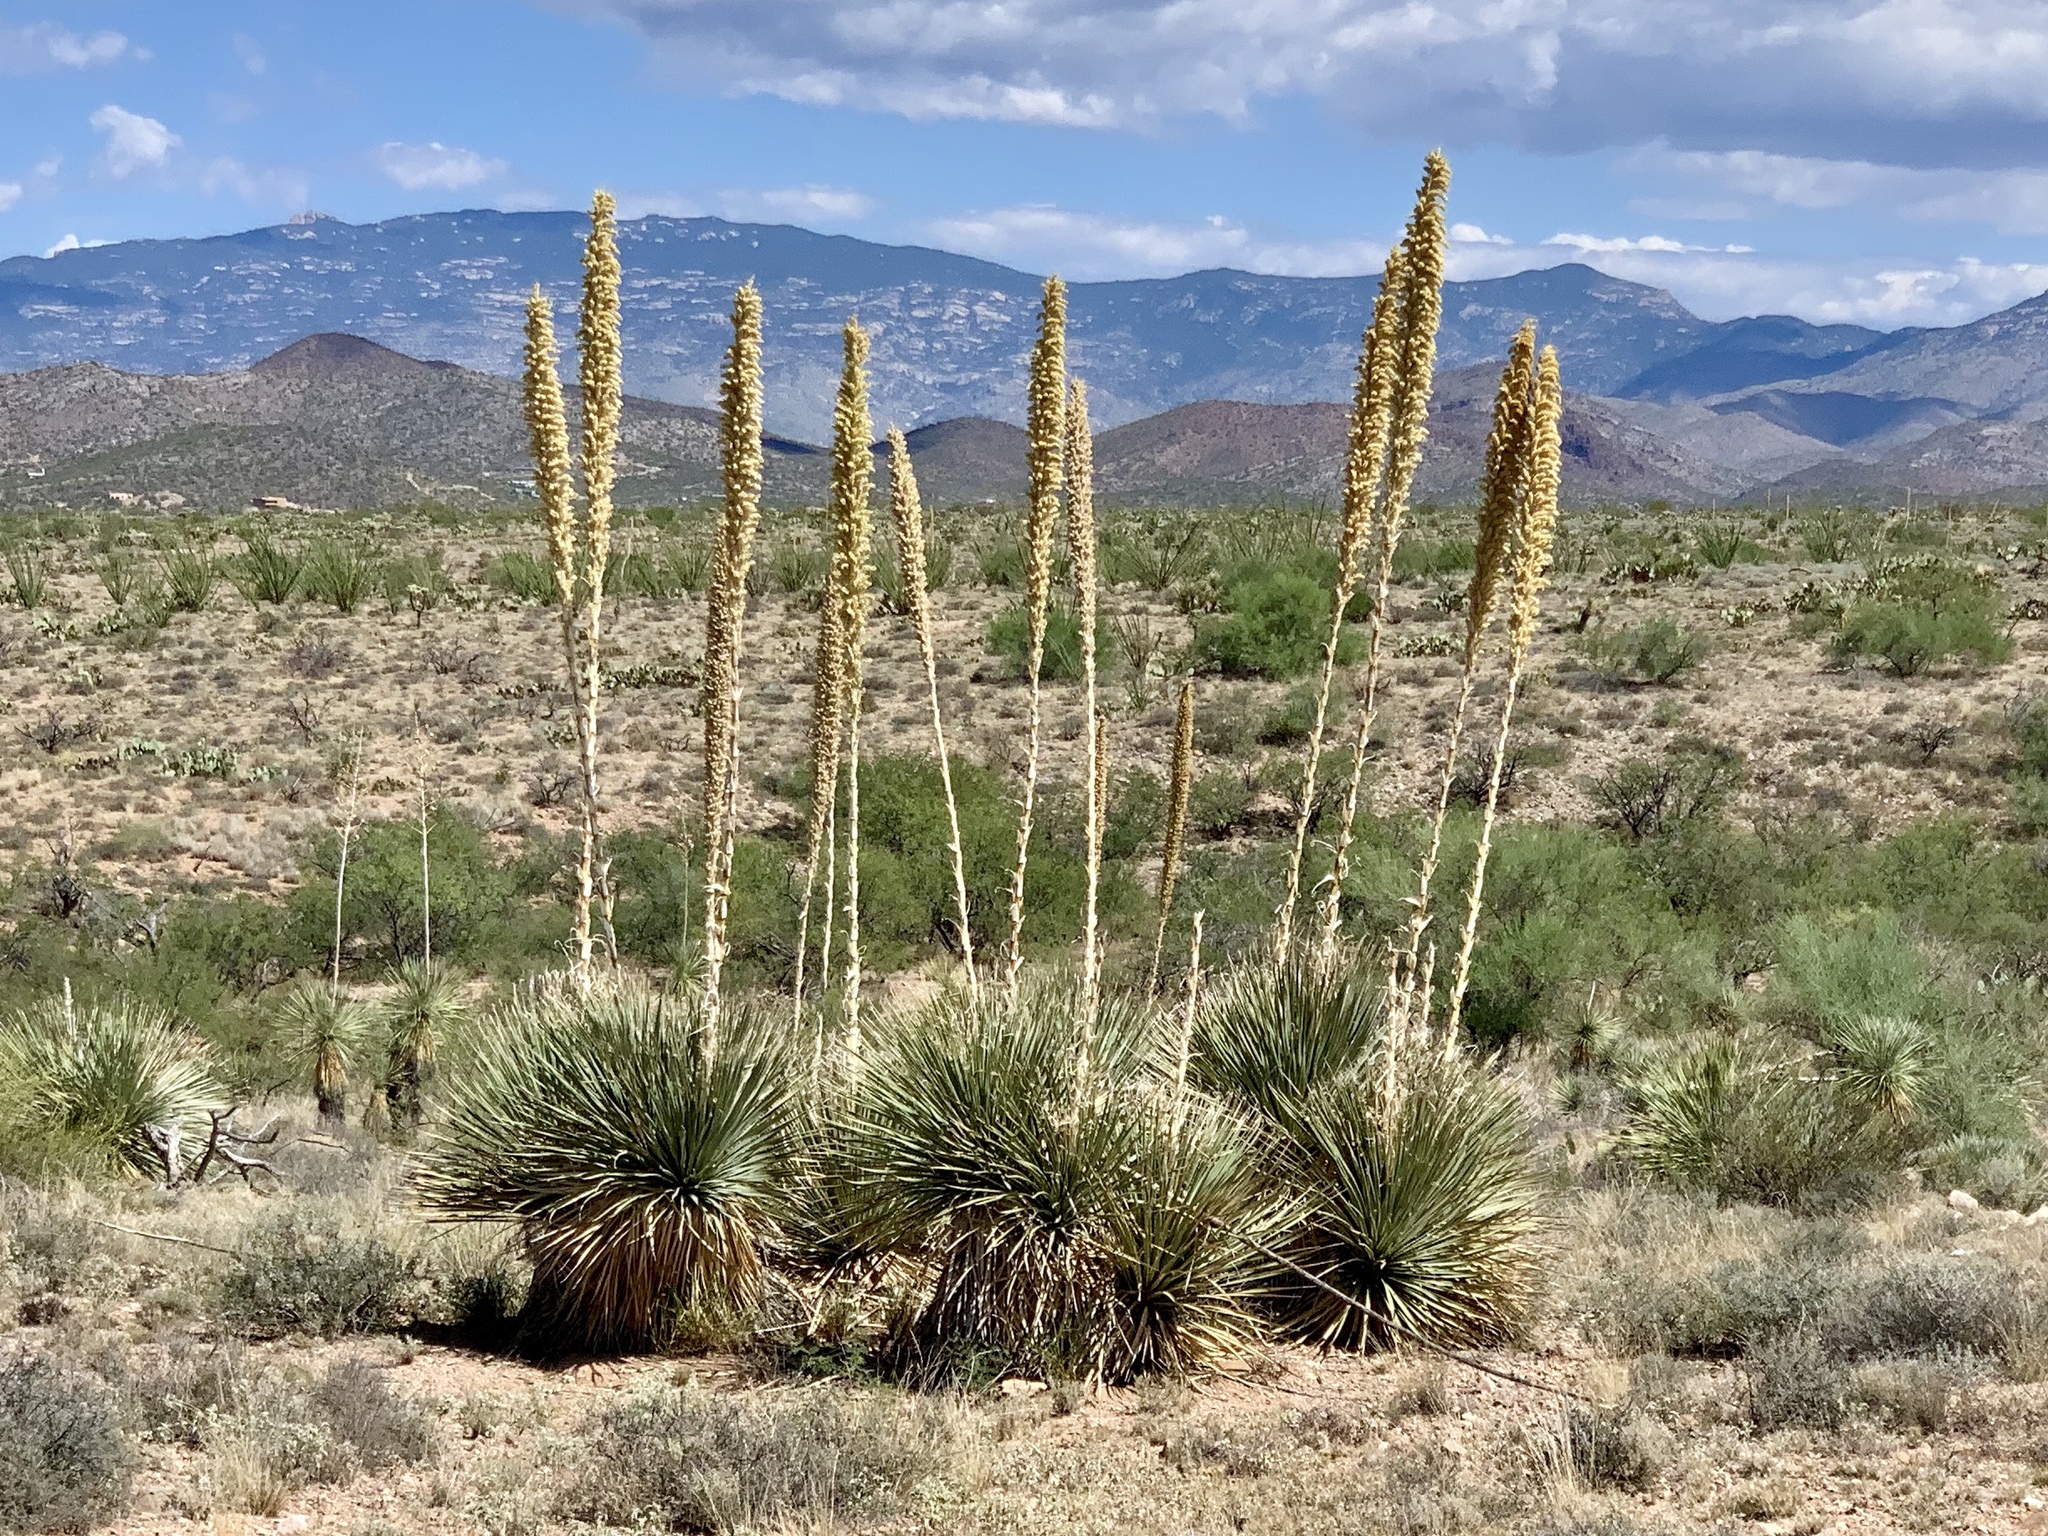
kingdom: Plantae
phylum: Tracheophyta
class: Liliopsida
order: Asparagales
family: Asparagaceae
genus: Dasylirion
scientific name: Dasylirion wheeleri
